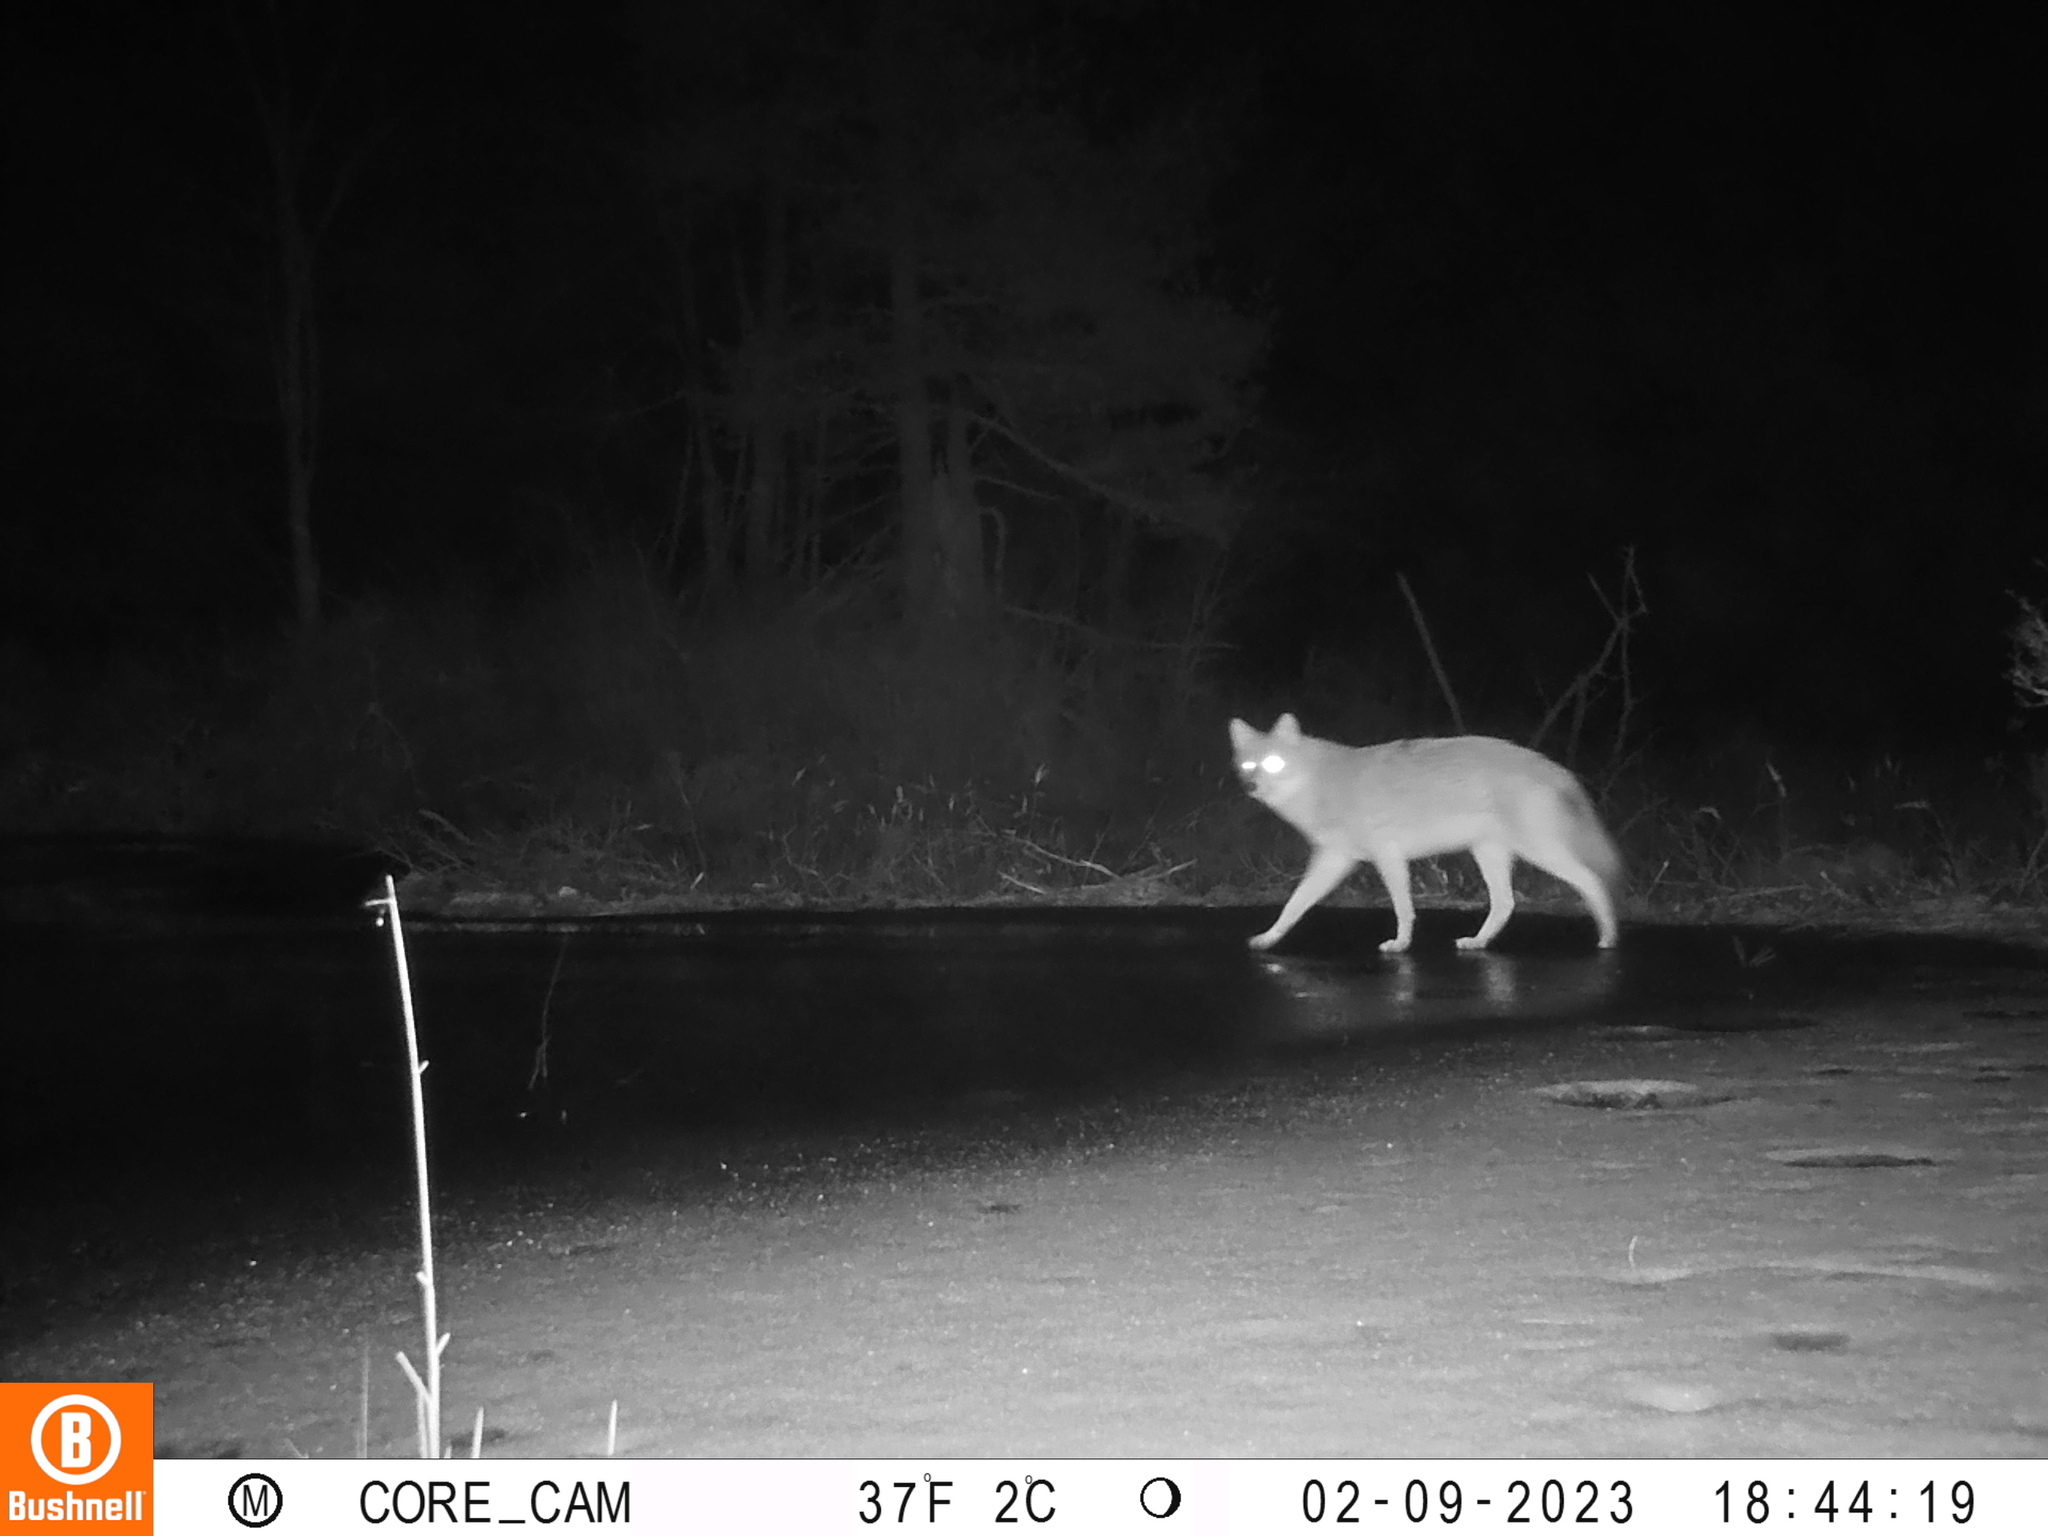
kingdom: Animalia
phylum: Chordata
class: Mammalia
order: Carnivora
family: Canidae
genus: Canis
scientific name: Canis latrans
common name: Coyote
